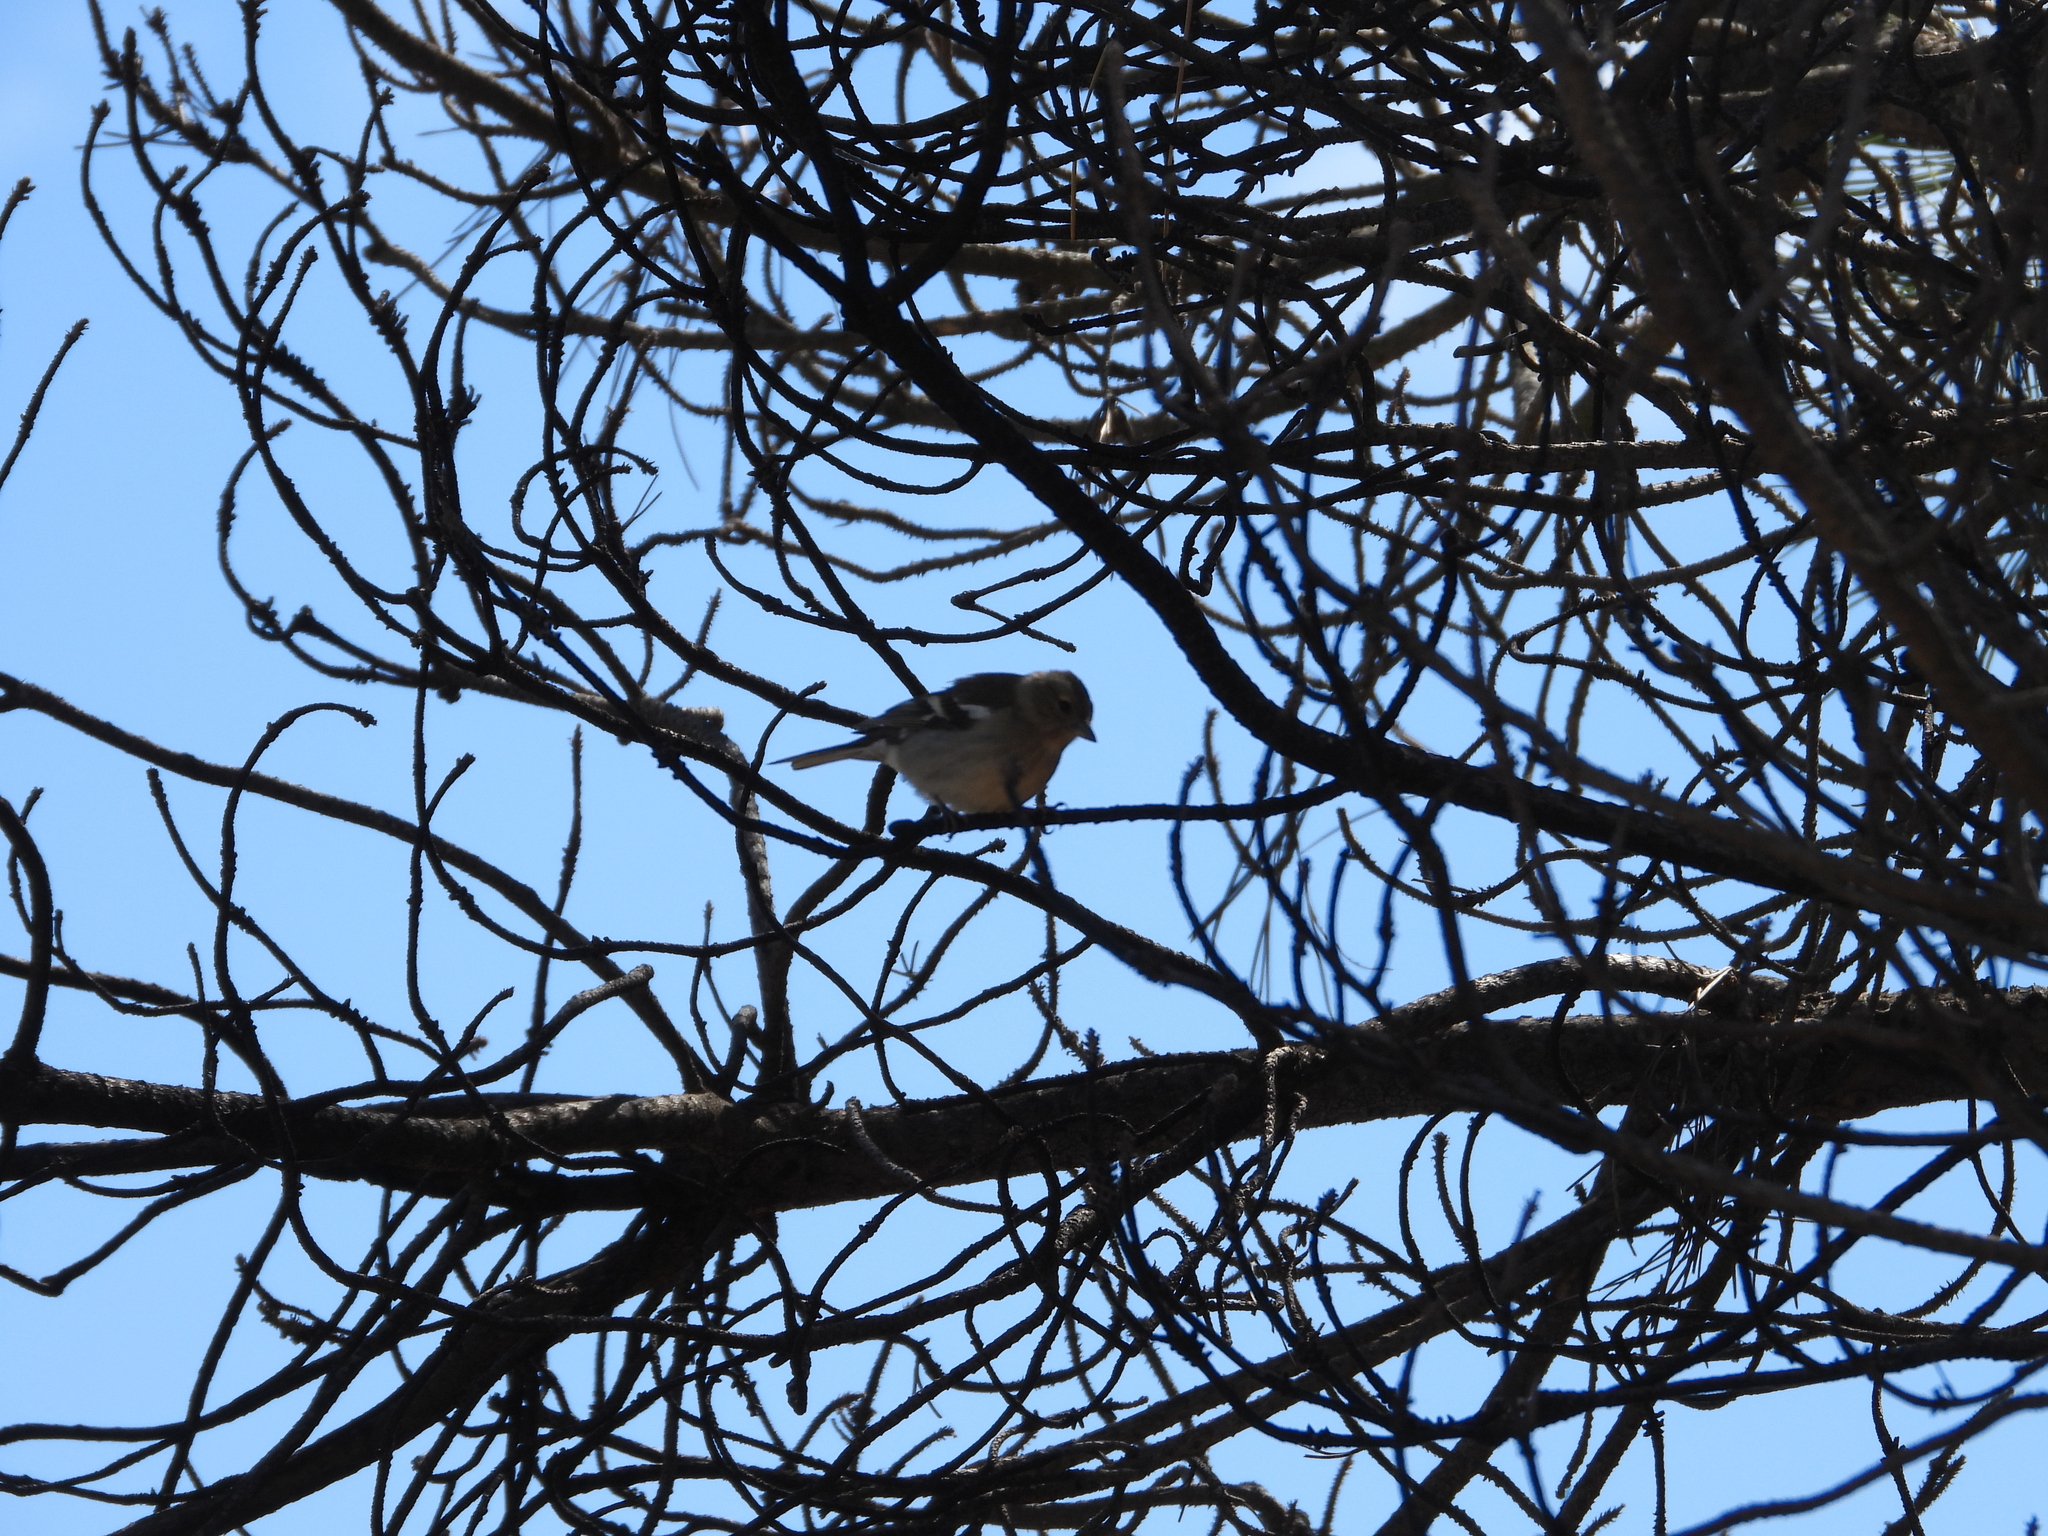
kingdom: Animalia
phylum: Chordata
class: Aves
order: Passeriformes
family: Fringillidae
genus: Fringilla
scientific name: Fringilla coelebs
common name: Common chaffinch
